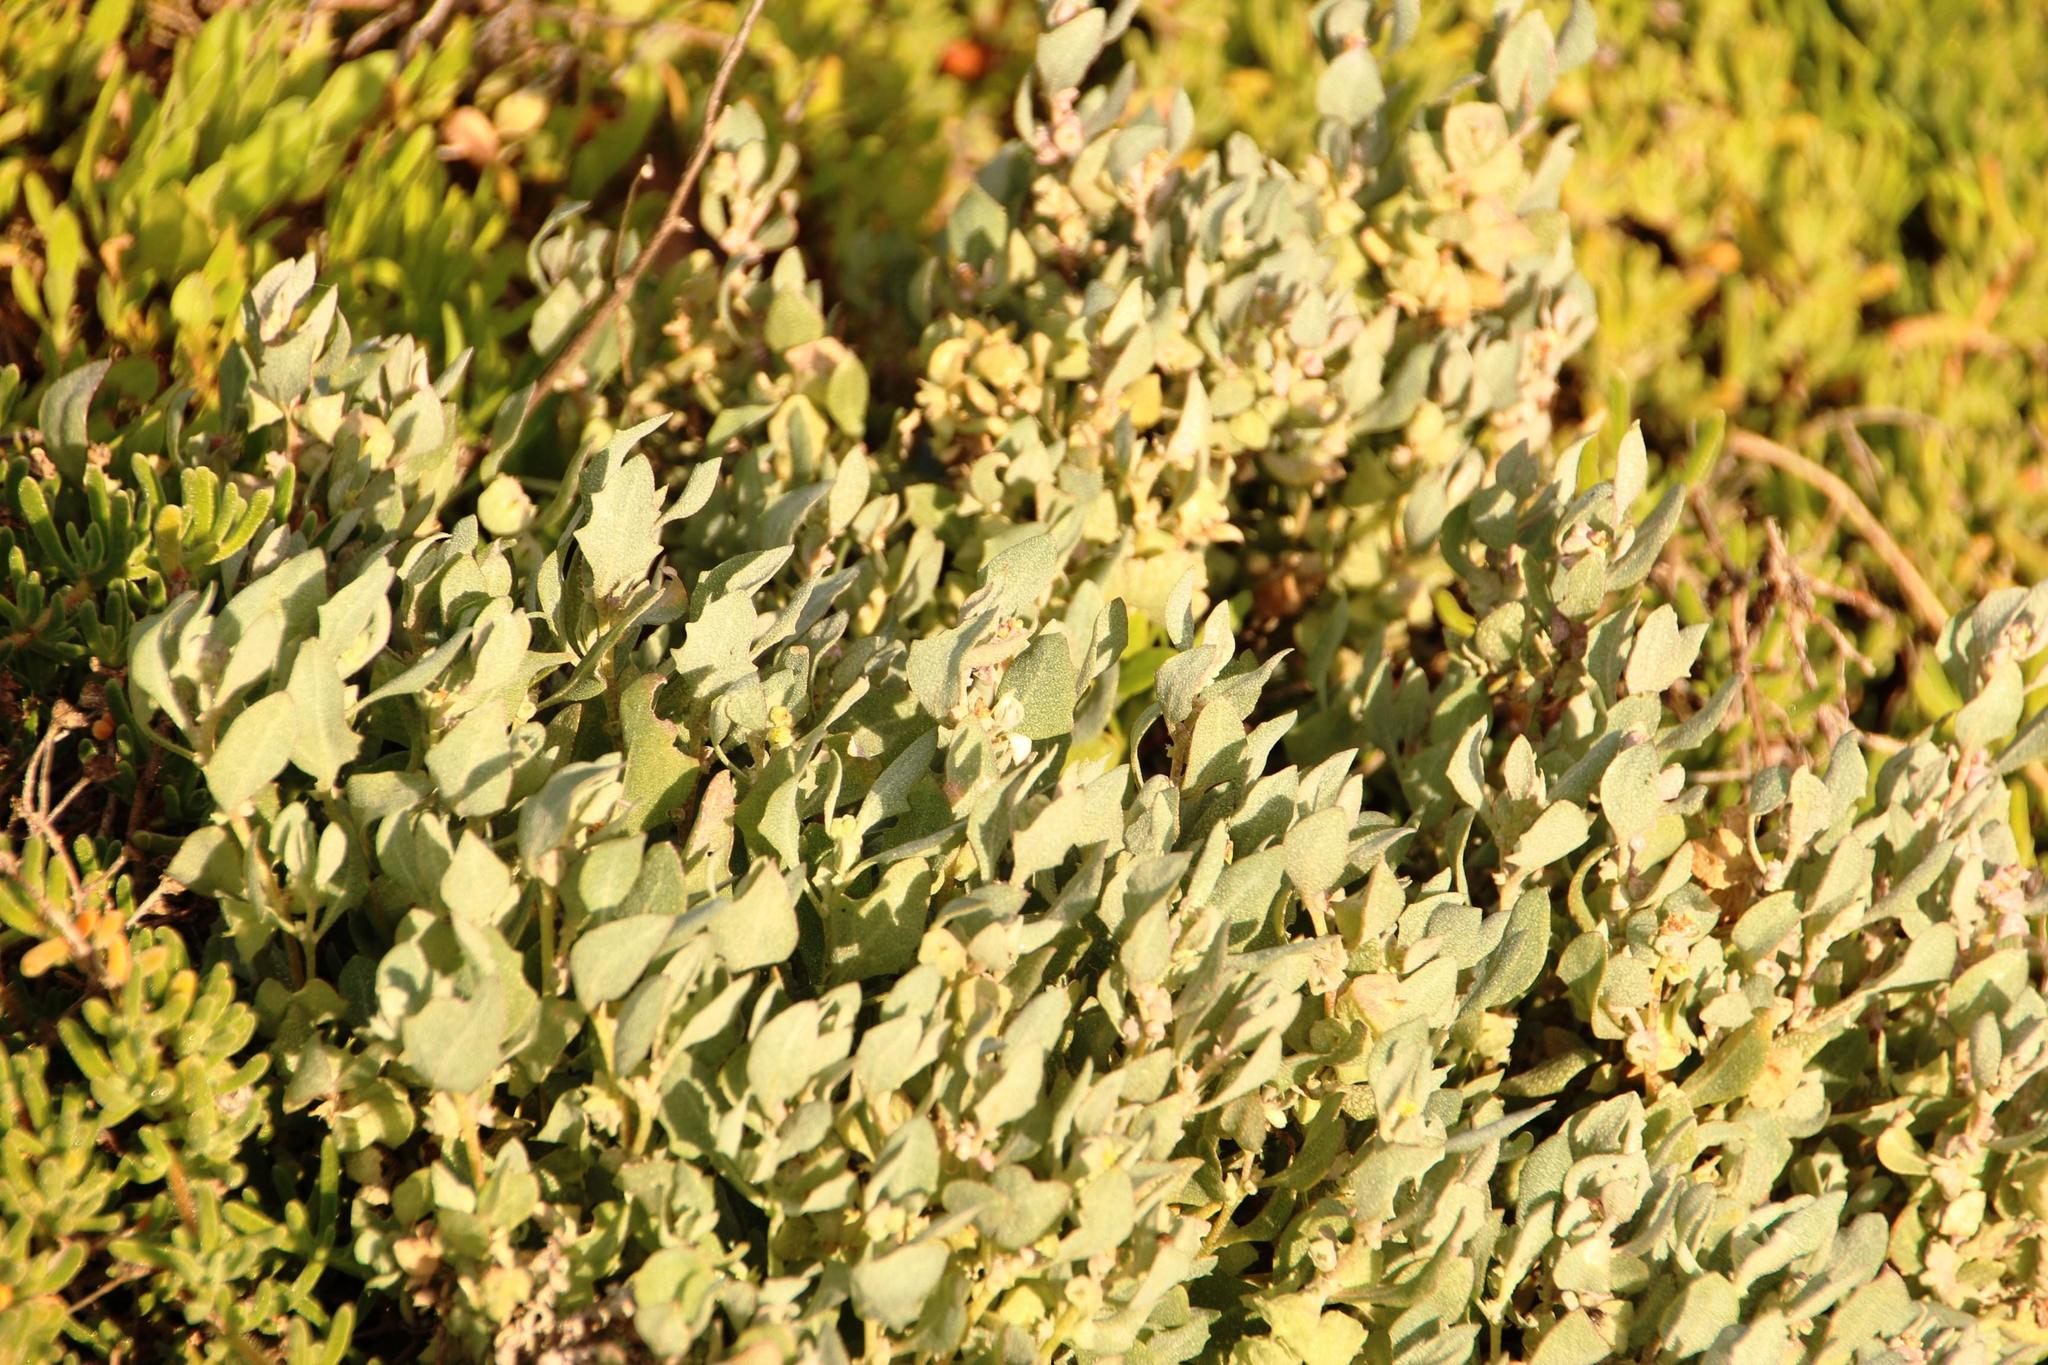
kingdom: Plantae
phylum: Tracheophyta
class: Magnoliopsida
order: Caryophyllales
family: Amaranthaceae
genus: Atriplex
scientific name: Atriplex lindleyi
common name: Lindley's saltbush
